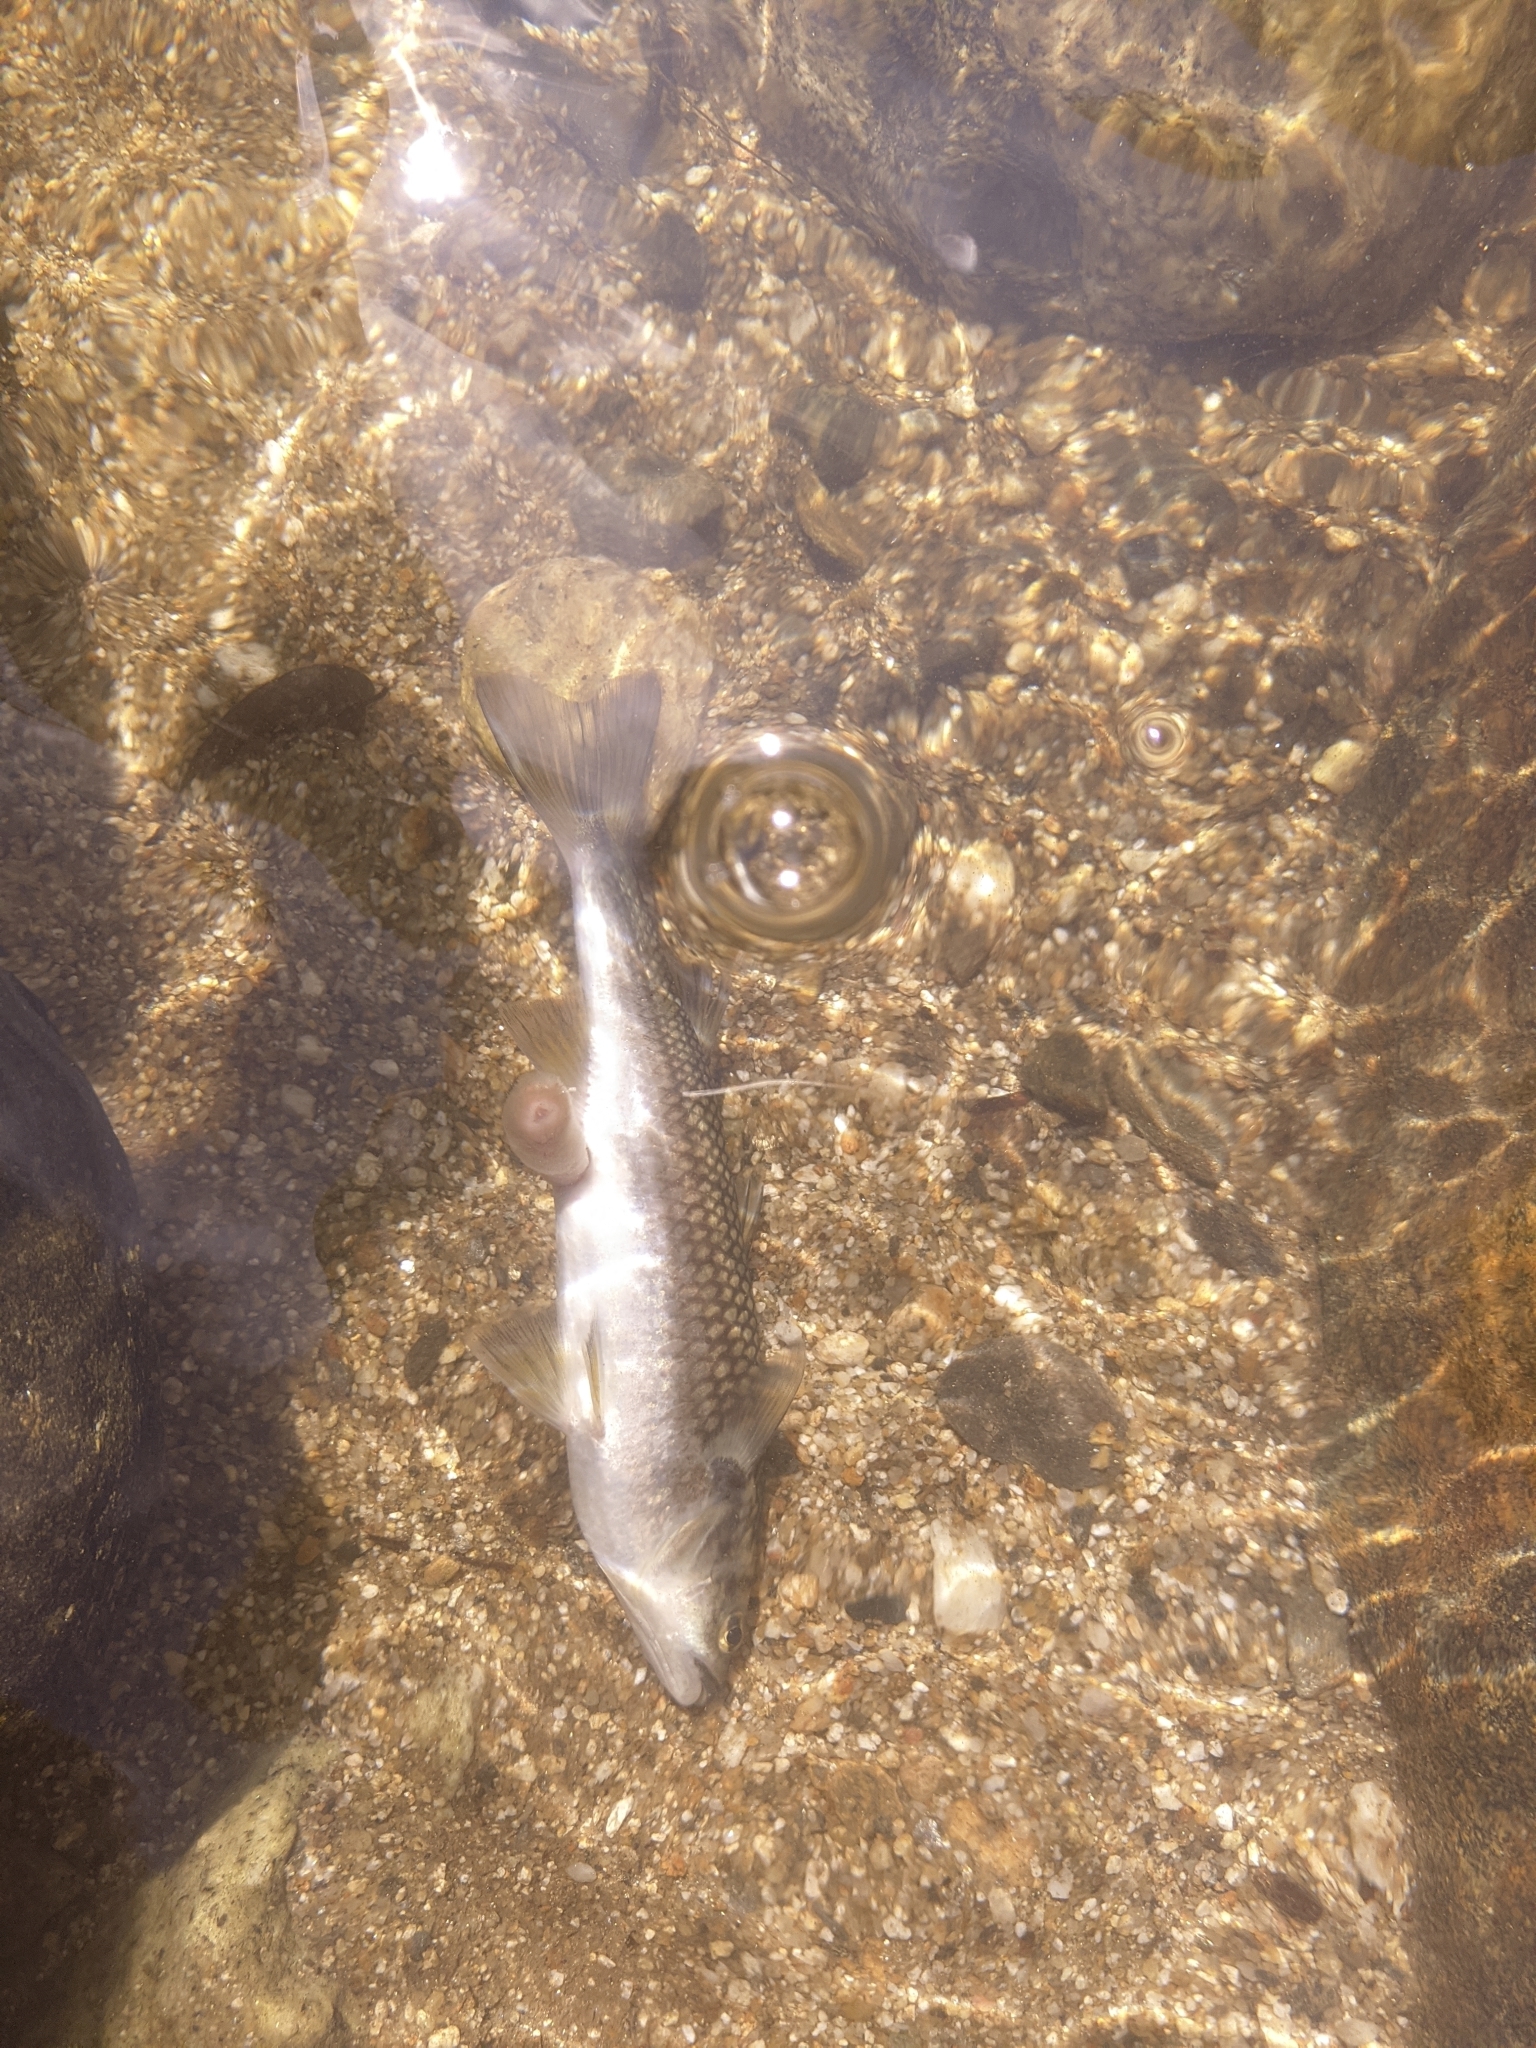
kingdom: Animalia
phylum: Chordata
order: Mugiliformes
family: Mugilidae
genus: Dajaus
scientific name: Dajaus monticola
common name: Mountain mullet
